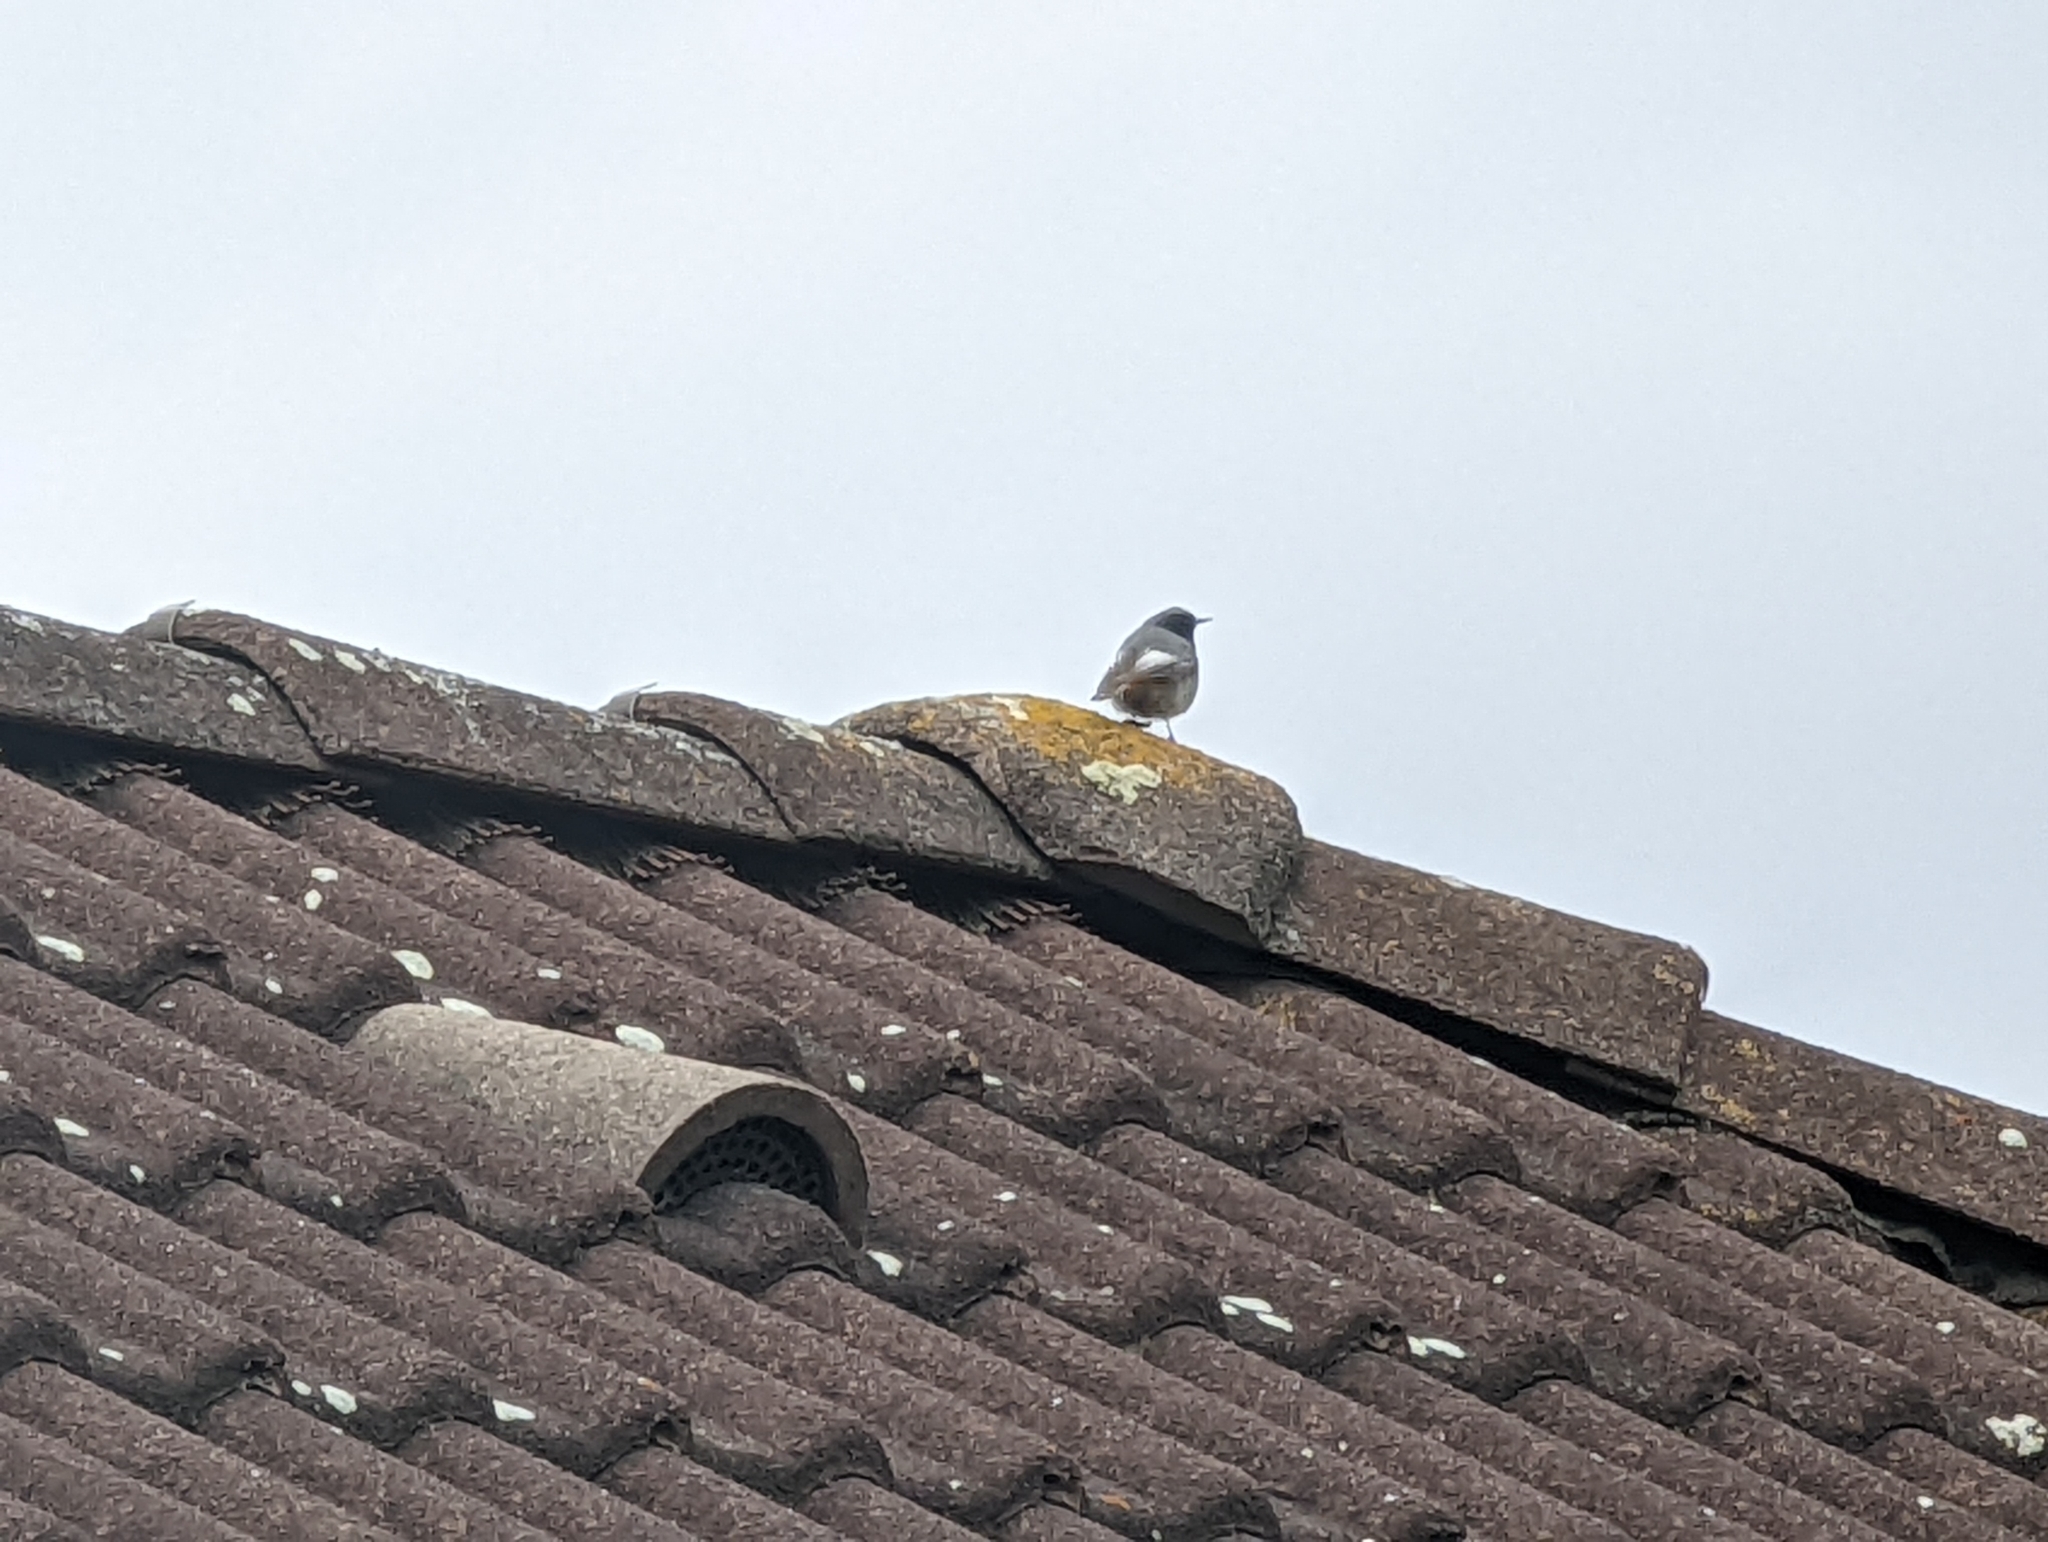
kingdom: Animalia
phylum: Chordata
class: Aves
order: Passeriformes
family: Muscicapidae
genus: Phoenicurus
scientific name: Phoenicurus ochruros
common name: Black redstart
